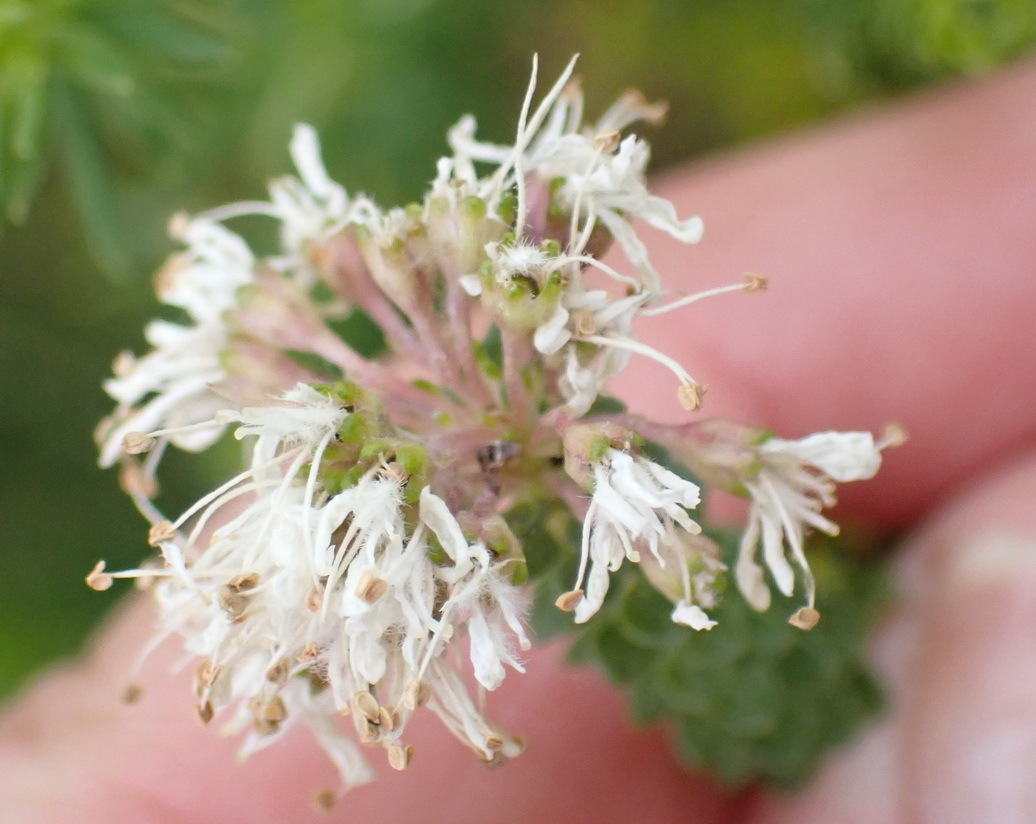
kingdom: Plantae
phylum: Tracheophyta
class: Magnoliopsida
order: Sapindales
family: Rutaceae
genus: Agathosma
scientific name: Agathosma muirii
